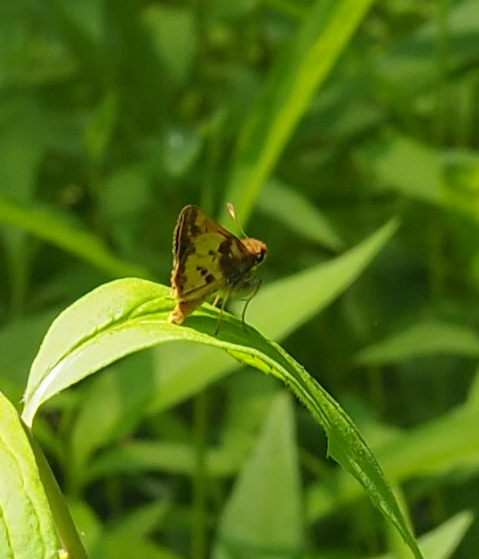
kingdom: Animalia
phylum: Arthropoda
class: Insecta
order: Lepidoptera
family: Hesperiidae
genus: Lon
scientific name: Lon zabulon
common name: Zabulon skipper
